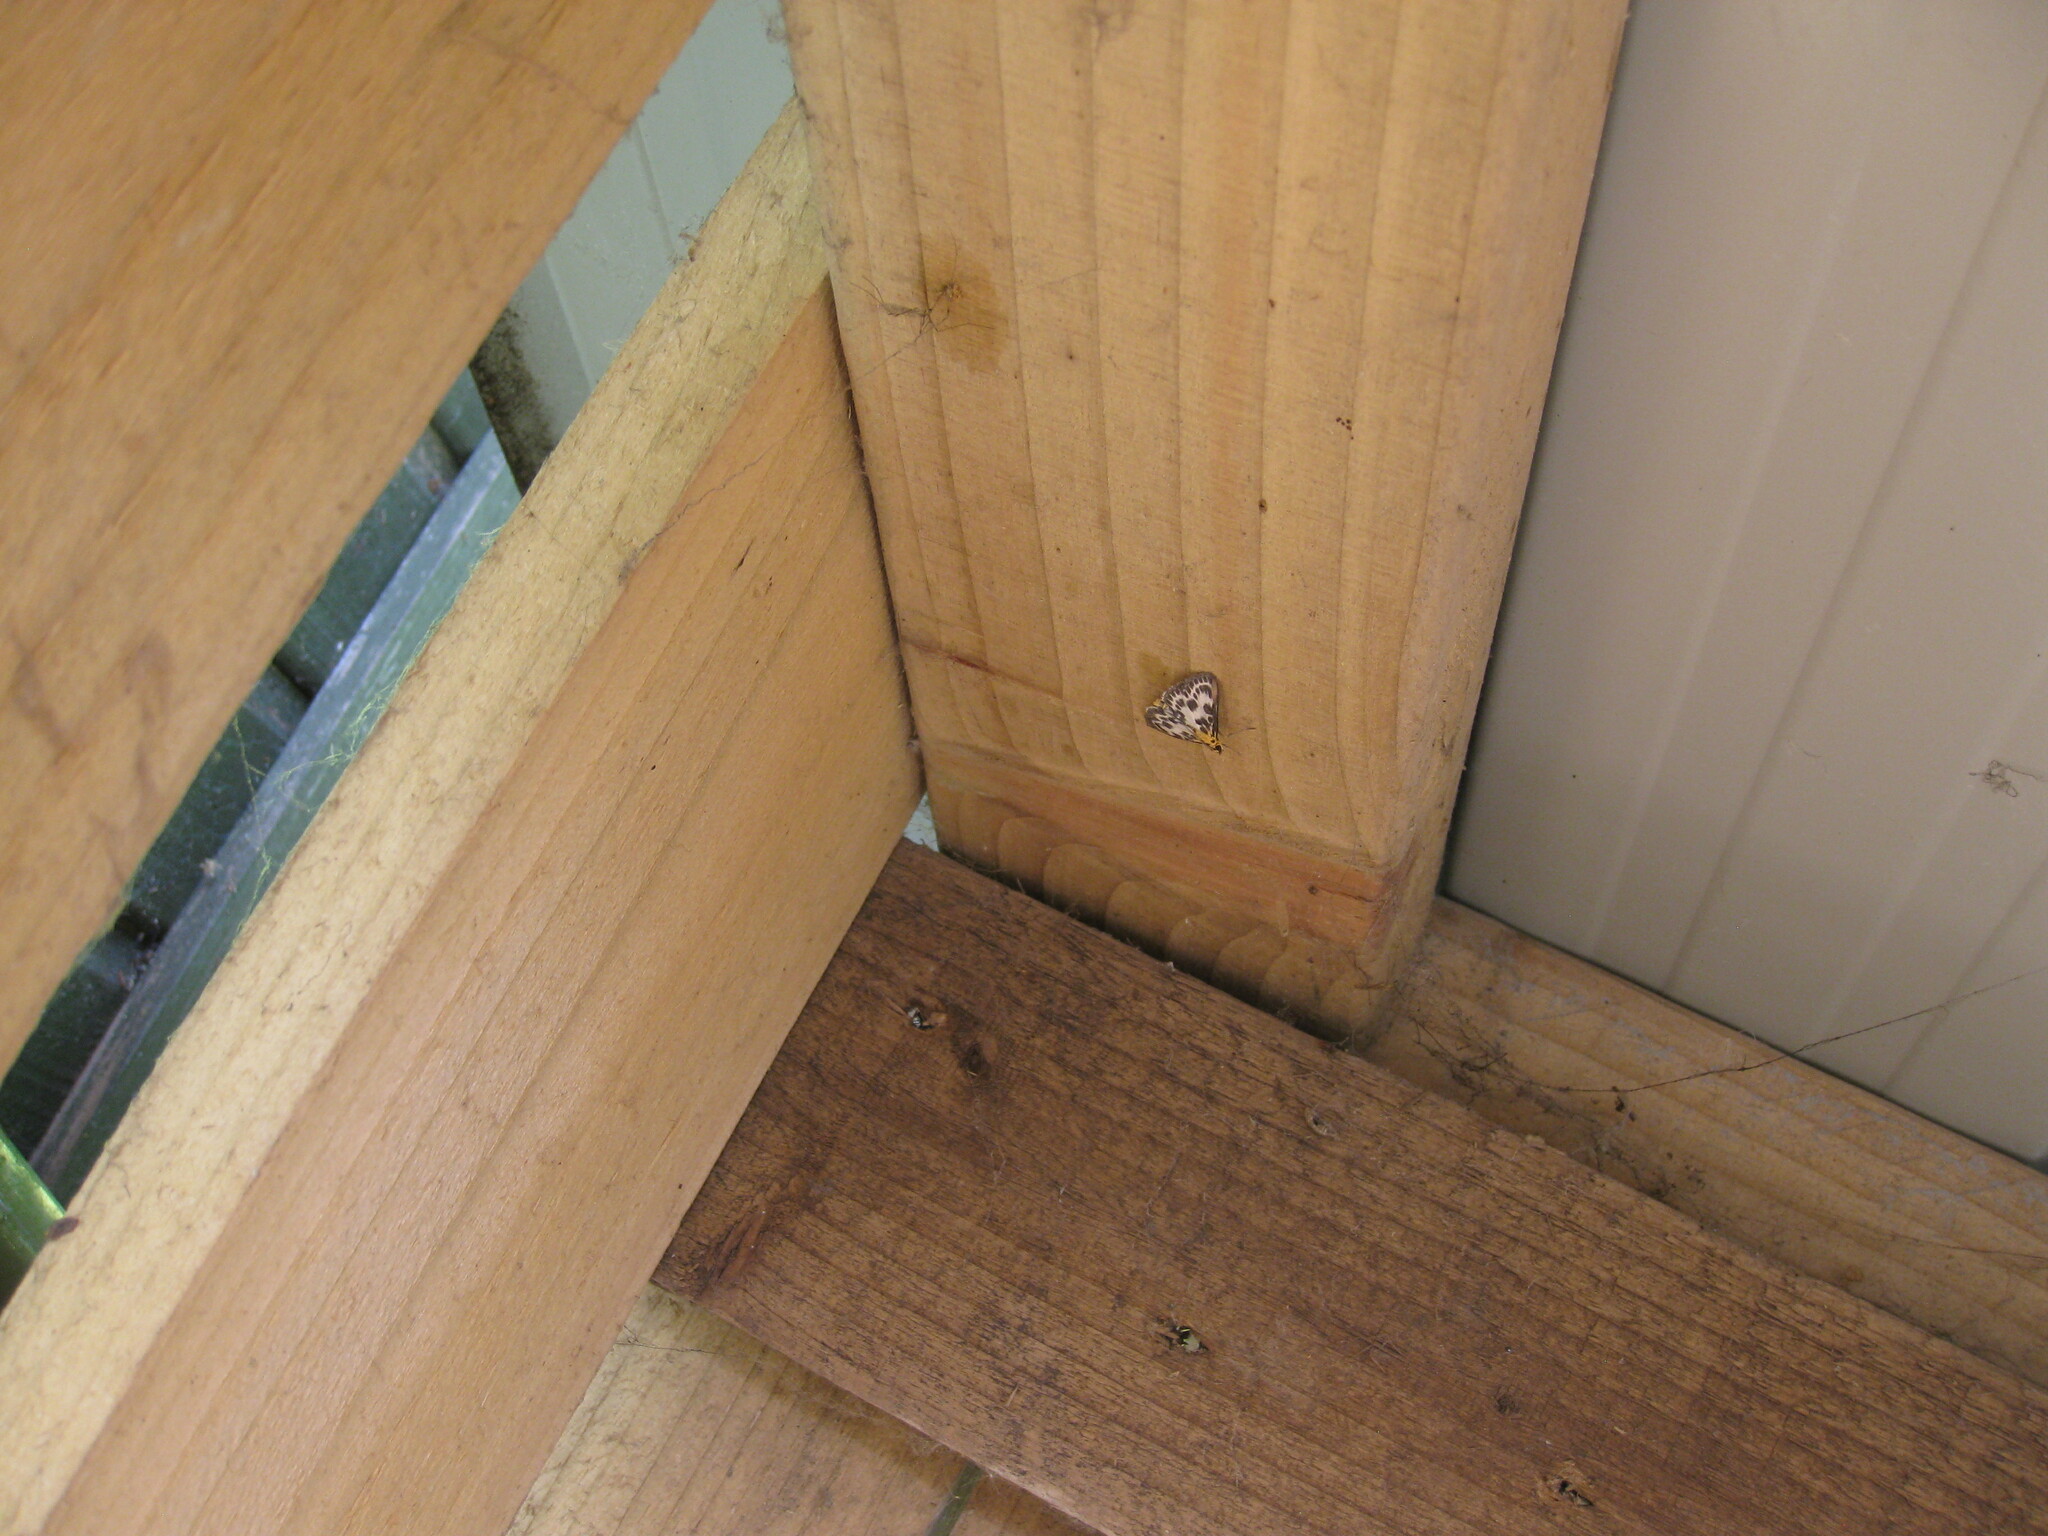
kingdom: Animalia
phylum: Arthropoda
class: Insecta
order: Lepidoptera
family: Crambidae
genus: Anania
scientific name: Anania hortulata
